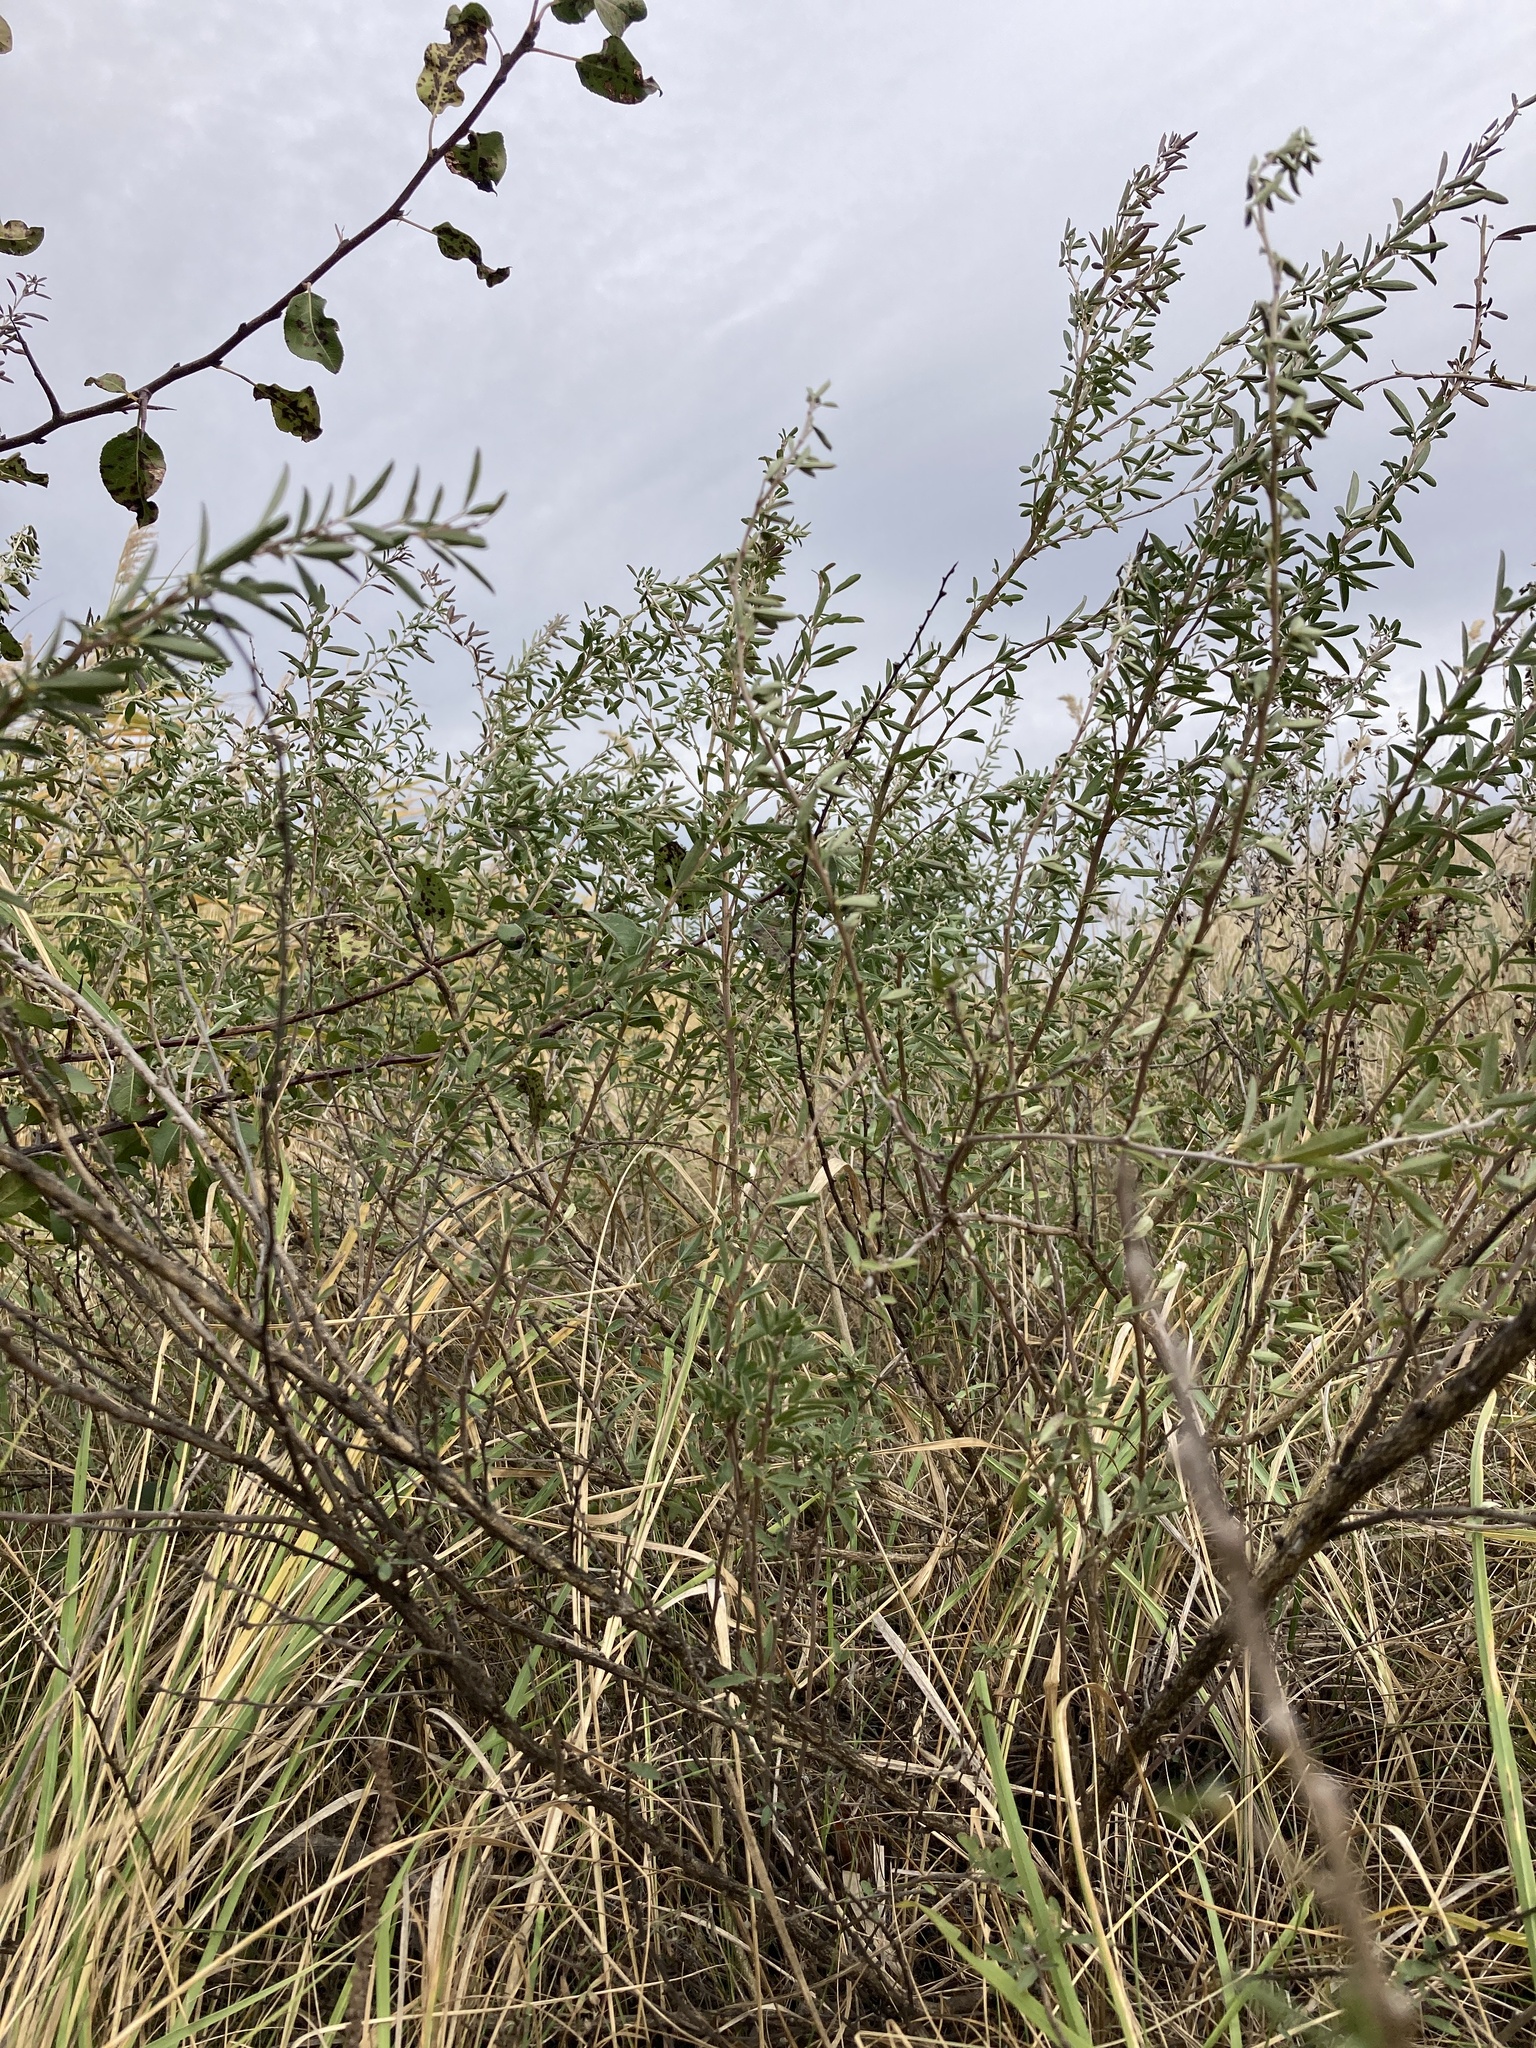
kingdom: Plantae
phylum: Tracheophyta
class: Magnoliopsida
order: Fabales
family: Fabaceae
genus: Chamaecytisus
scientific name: Chamaecytisus ruthenicus
